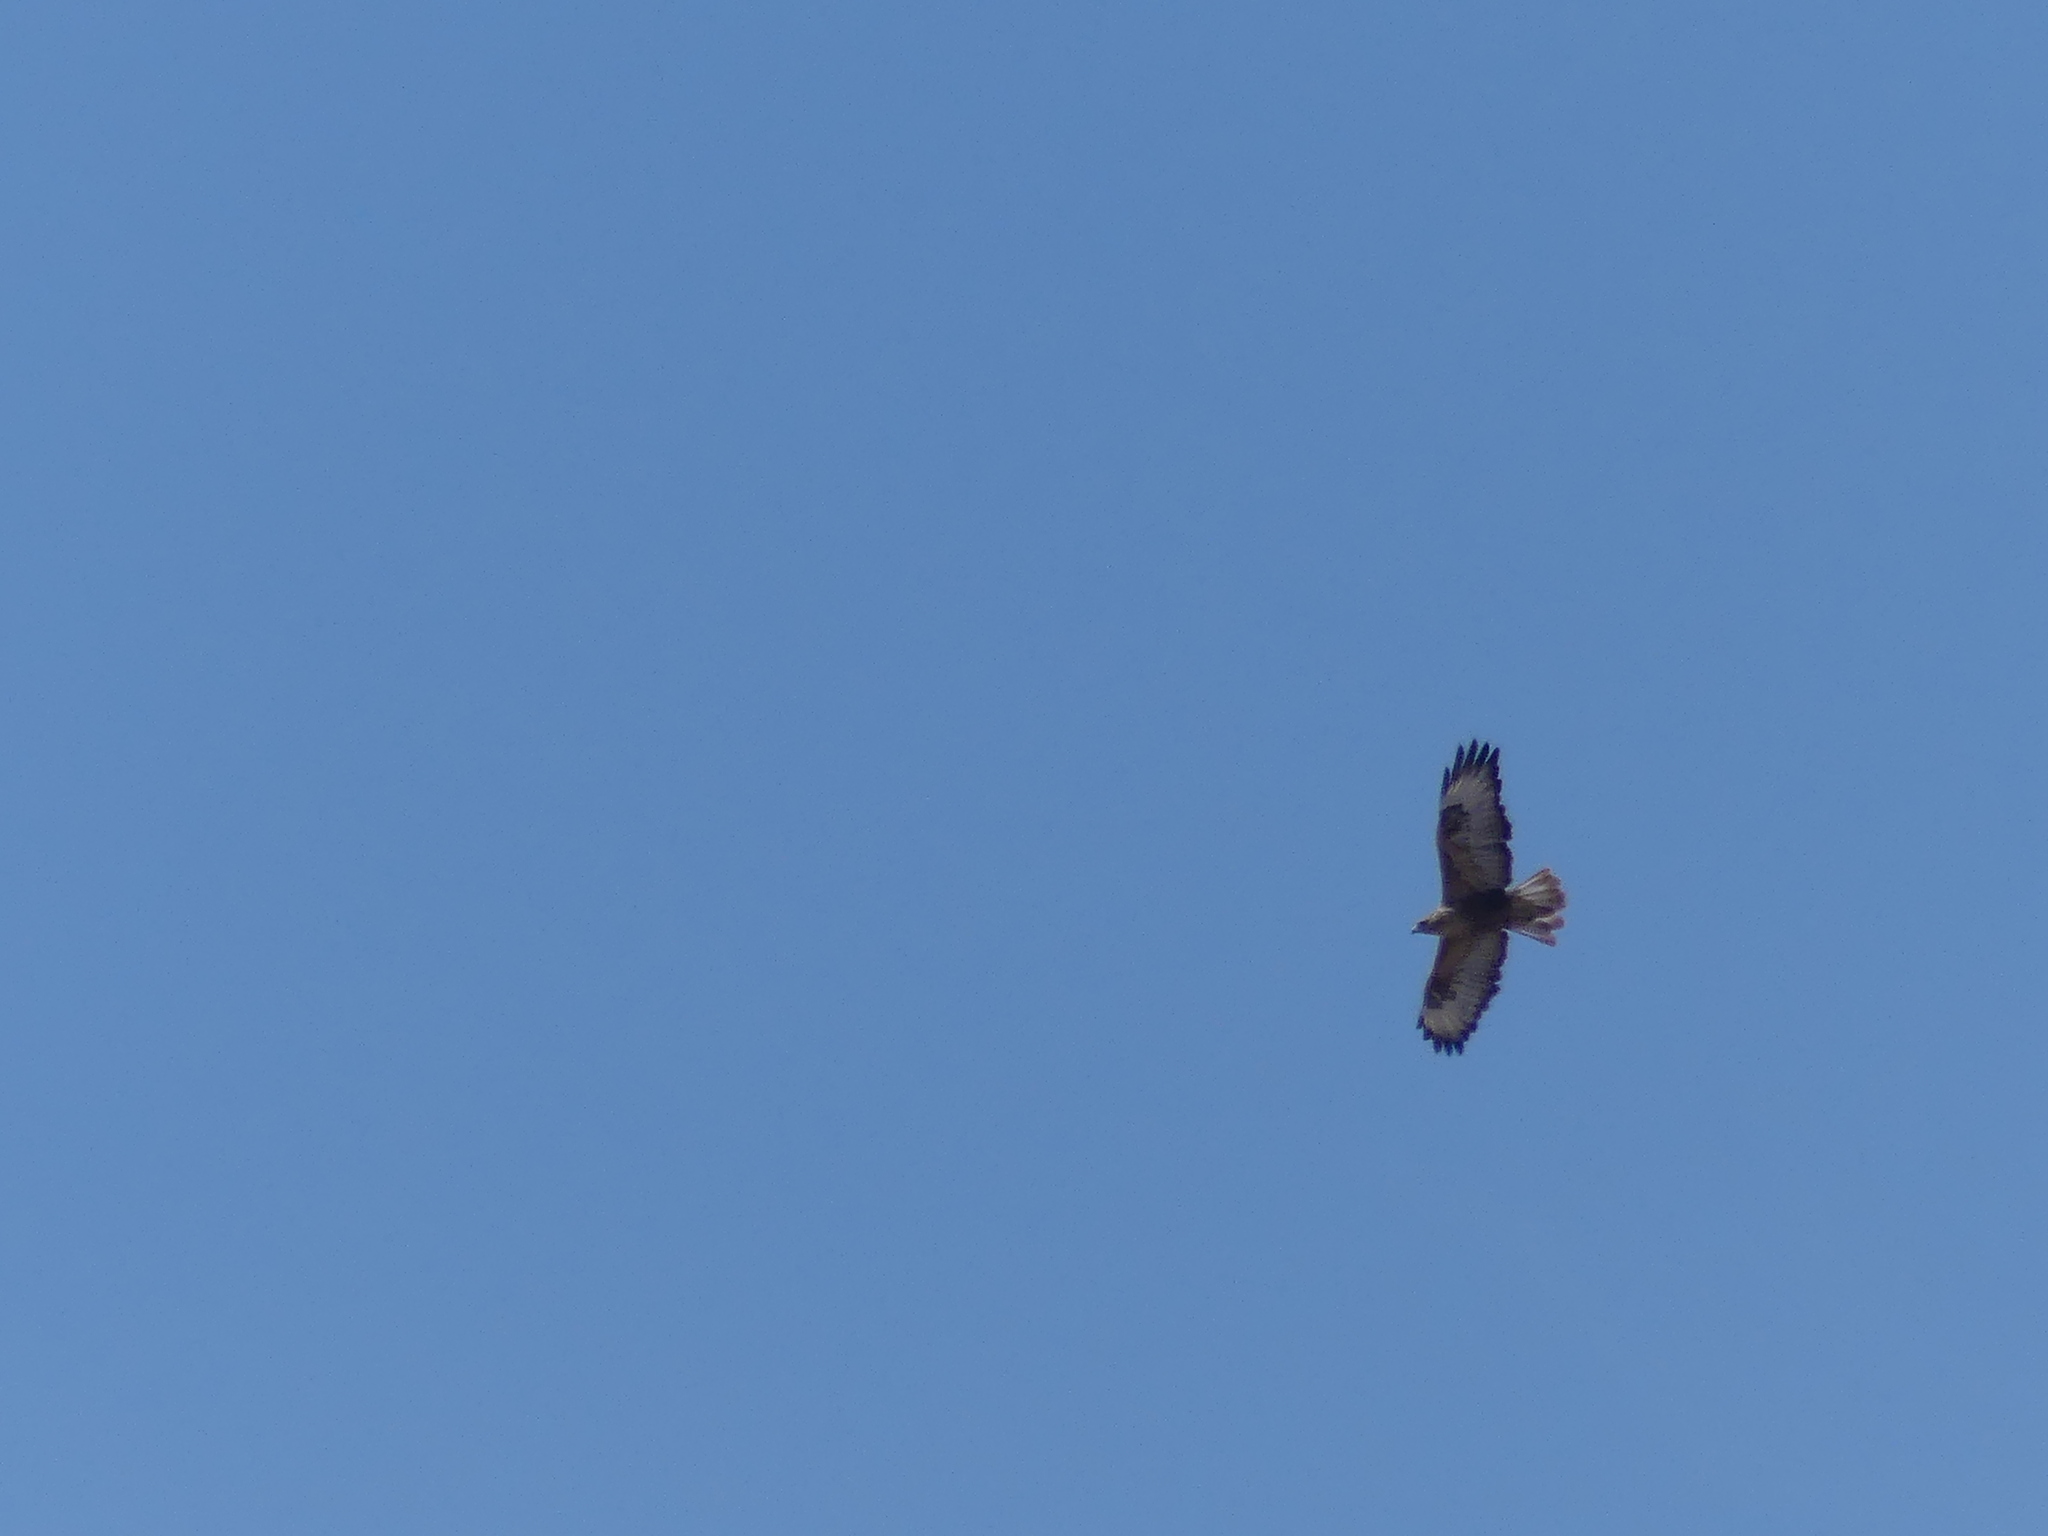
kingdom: Animalia
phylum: Chordata
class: Aves
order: Accipitriformes
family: Accipitridae
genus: Buteo
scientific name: Buteo rufinus
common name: Long-legged buzzard
